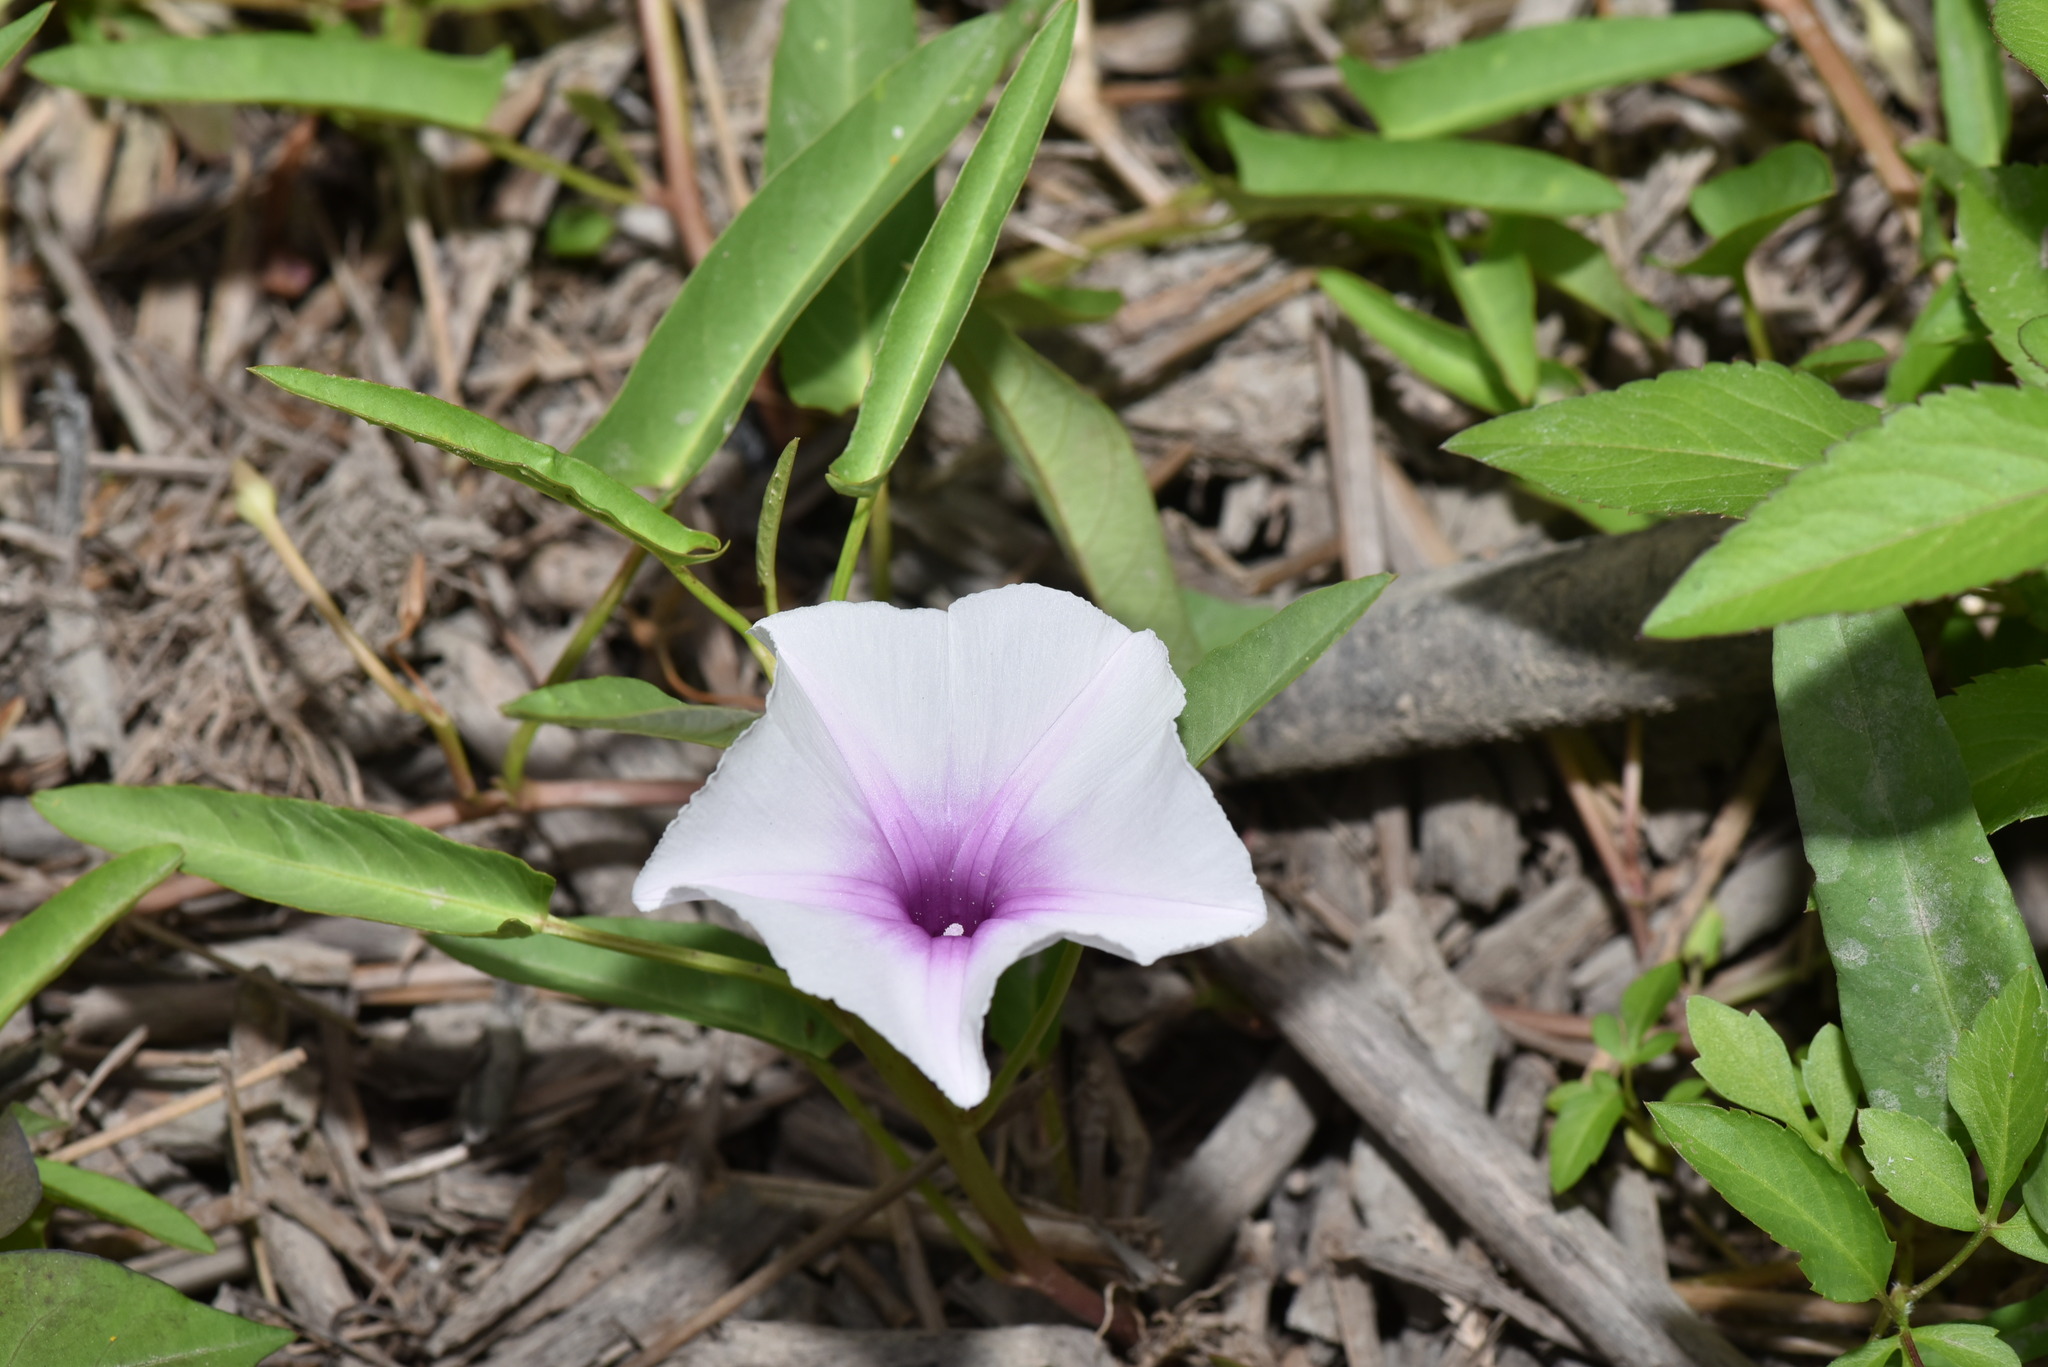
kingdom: Plantae
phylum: Tracheophyta
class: Magnoliopsida
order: Solanales
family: Convolvulaceae
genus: Ipomoea
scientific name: Ipomoea aquatica
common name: Swamp morning-glory
